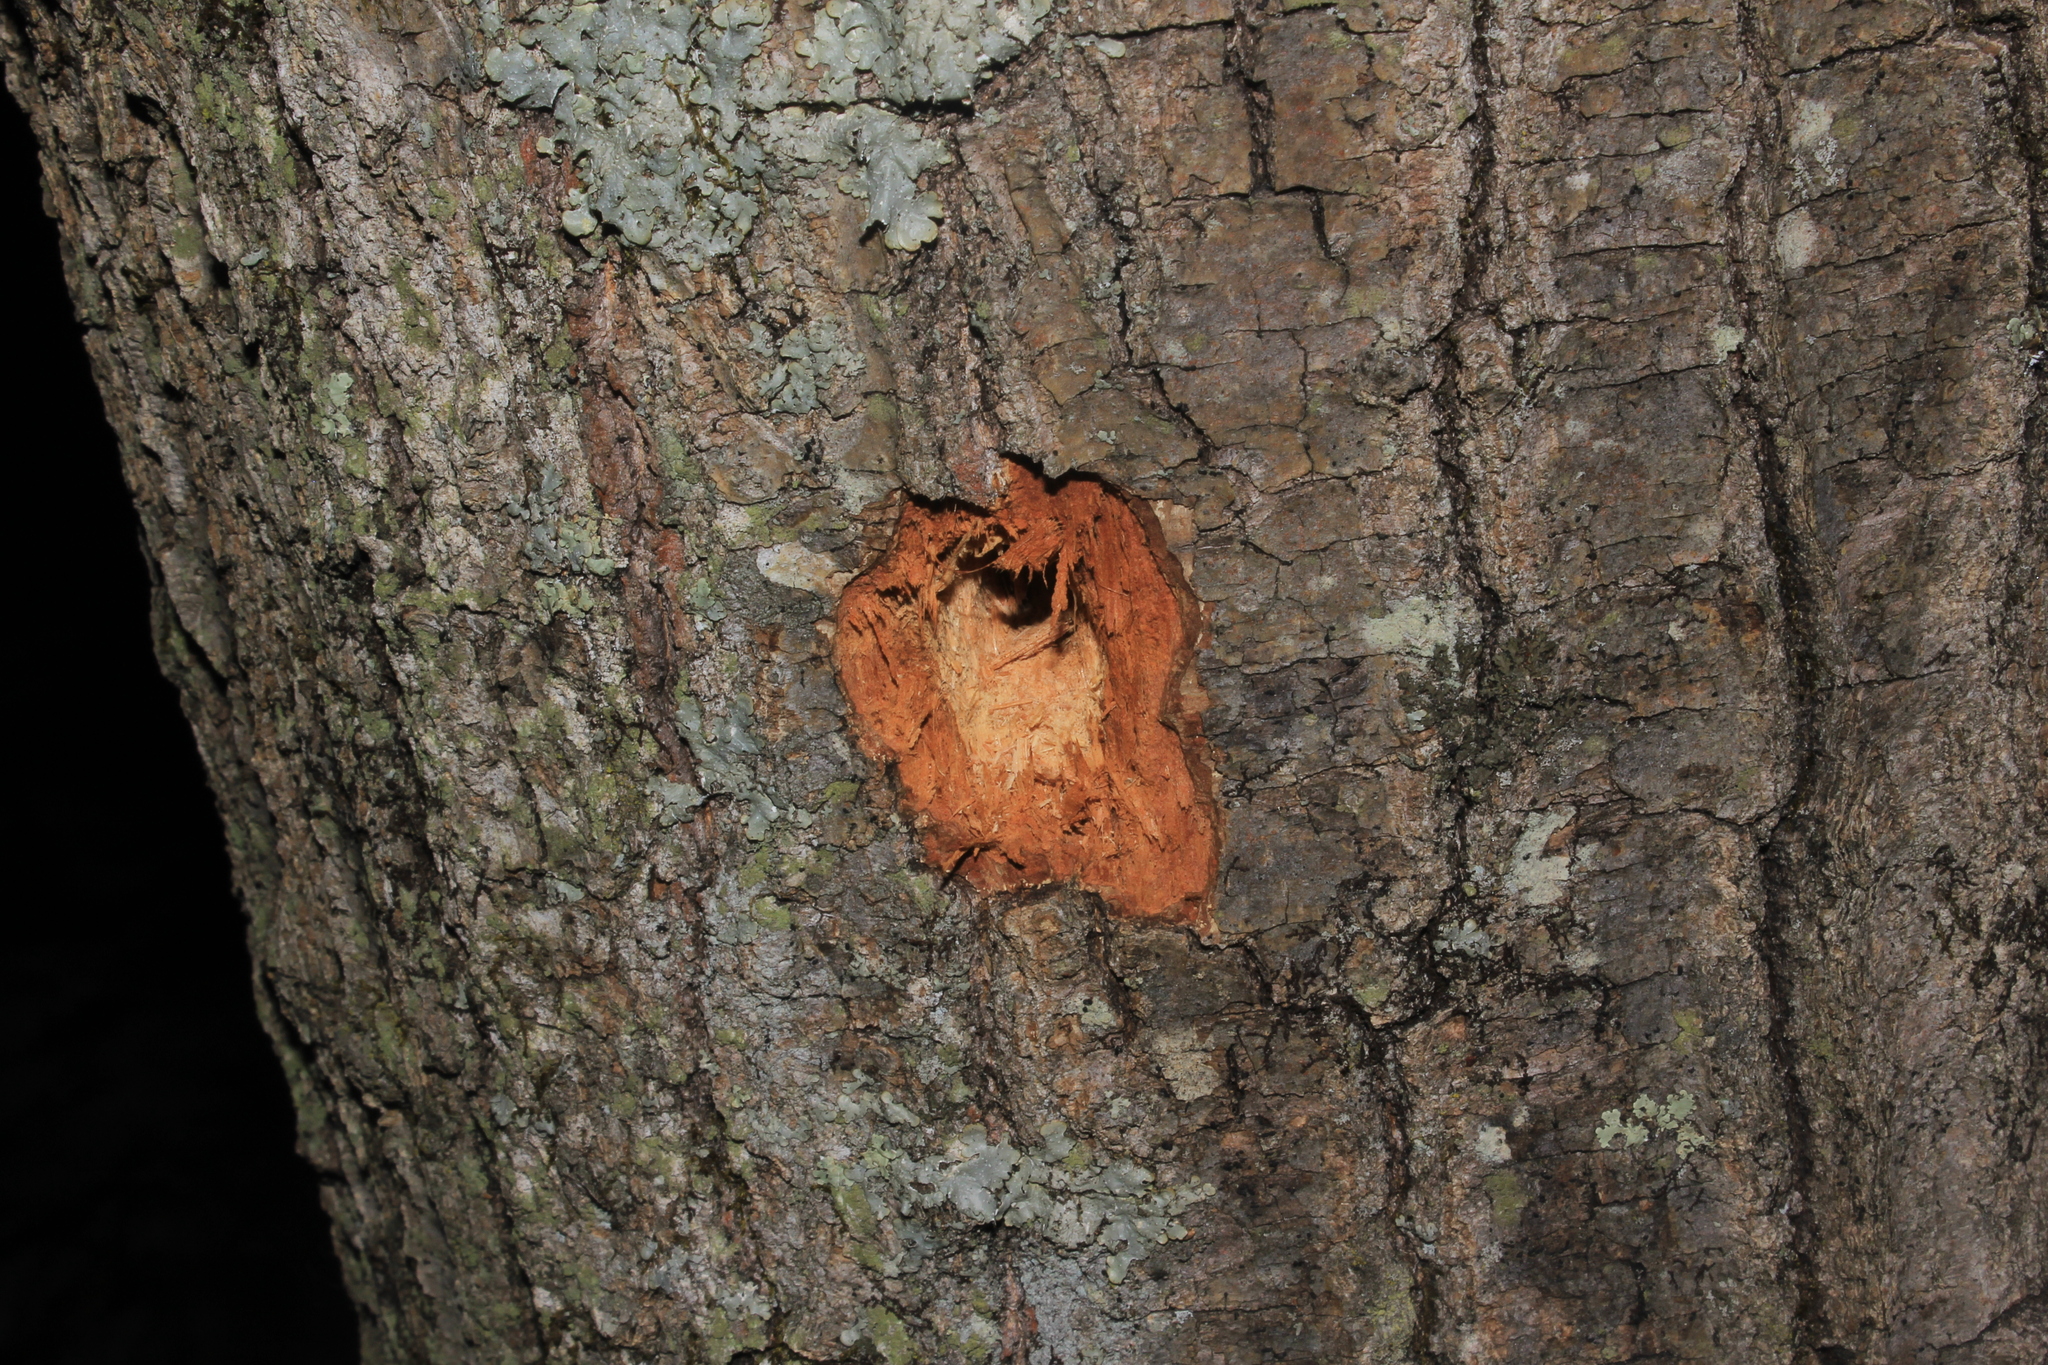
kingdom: Animalia
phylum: Chordata
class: Aves
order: Piciformes
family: Picidae
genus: Dryocopus
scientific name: Dryocopus pileatus
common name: Pileated woodpecker
